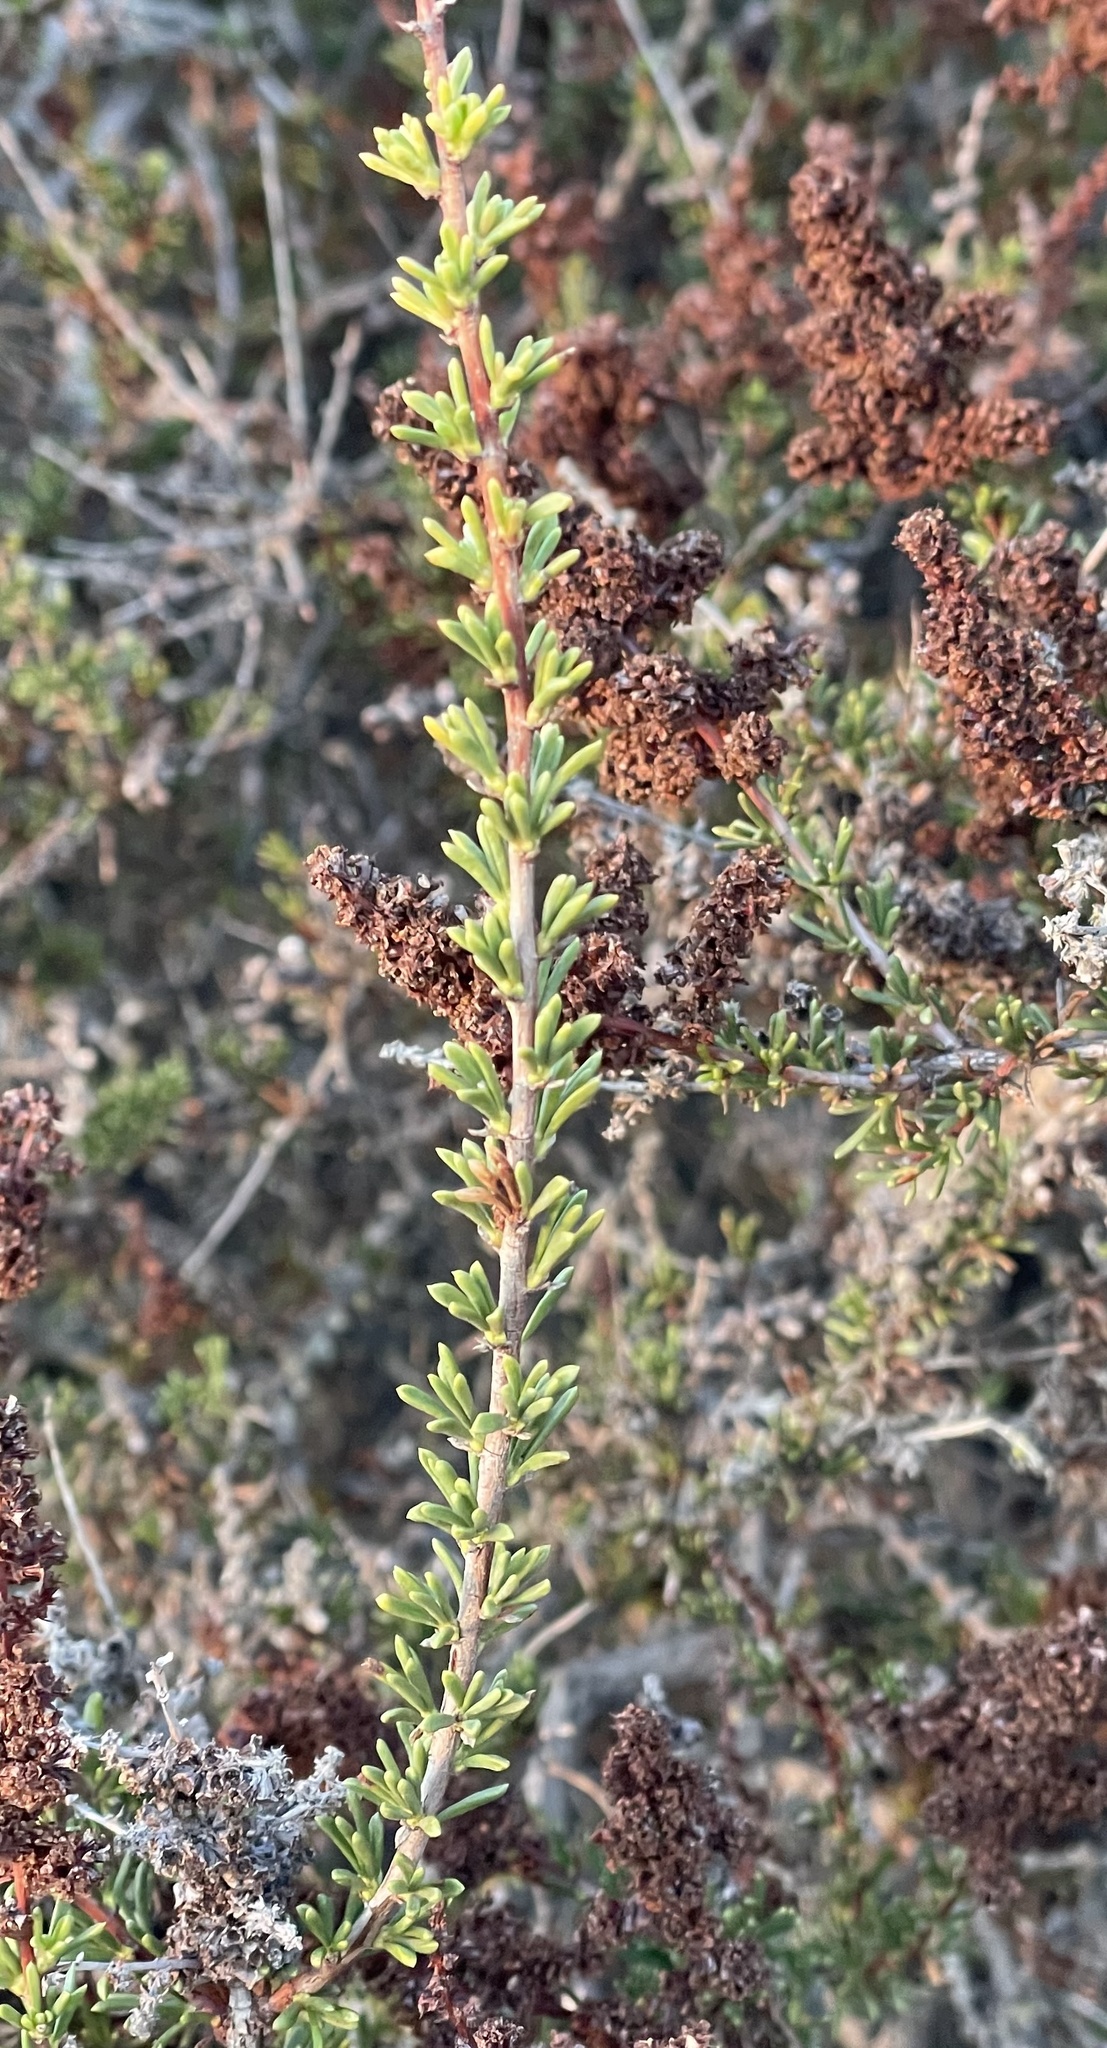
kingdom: Plantae
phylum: Tracheophyta
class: Magnoliopsida
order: Rosales
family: Rosaceae
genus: Adenostoma
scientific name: Adenostoma fasciculatum
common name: Chamise
